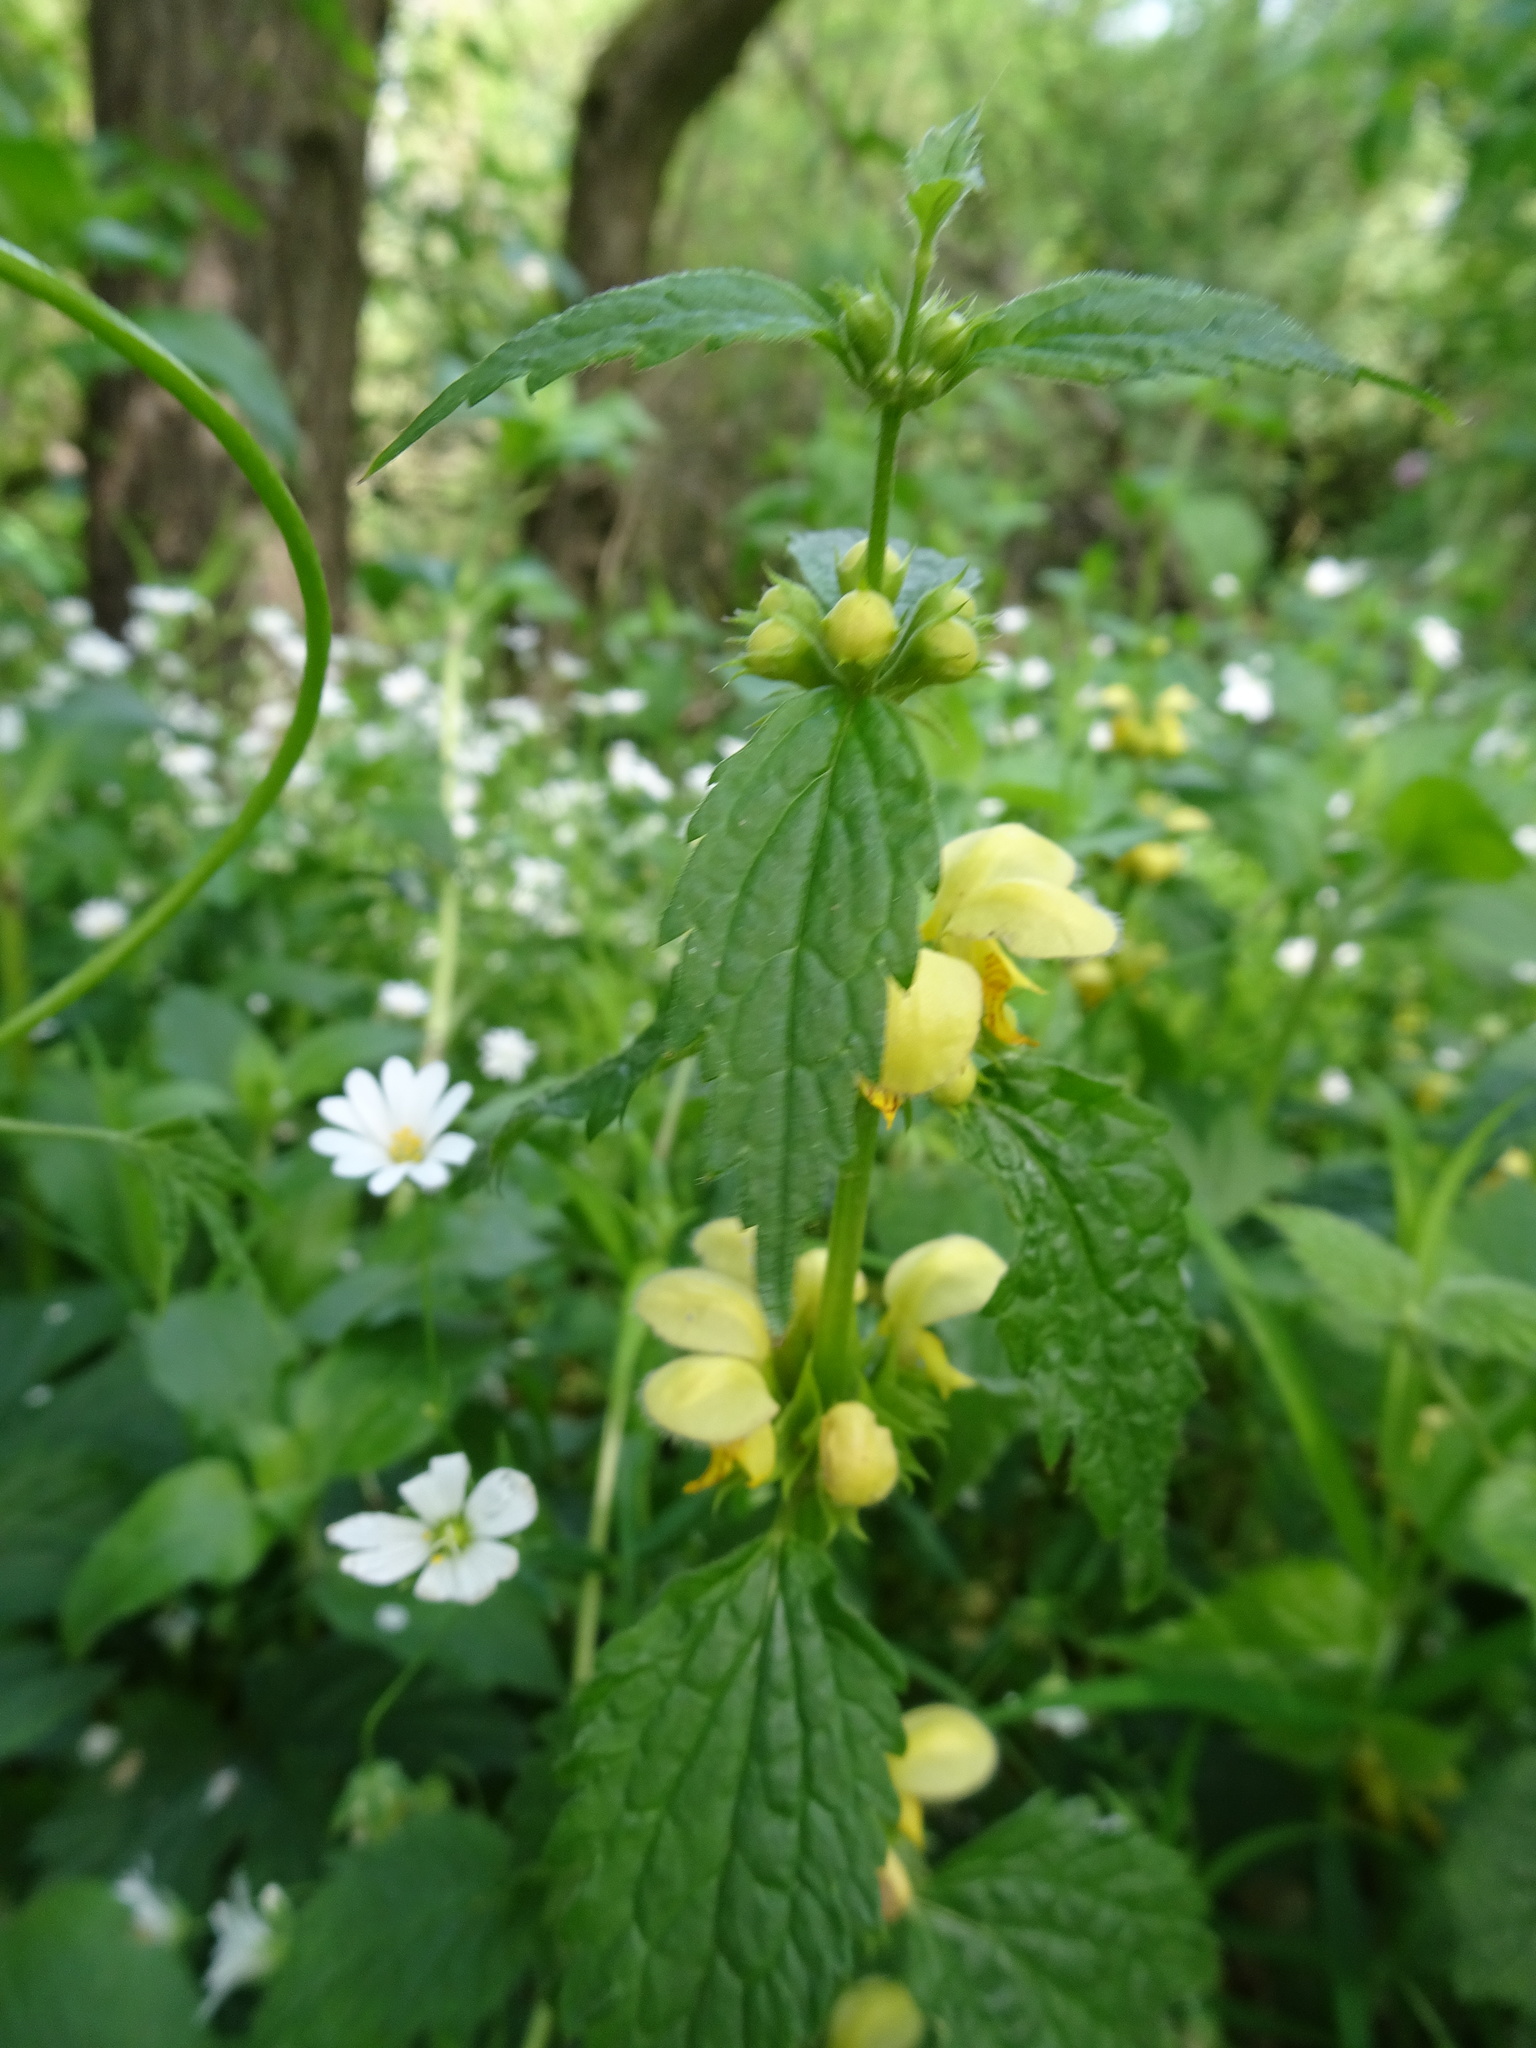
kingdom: Plantae
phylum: Tracheophyta
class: Magnoliopsida
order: Lamiales
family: Lamiaceae
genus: Lamium
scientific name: Lamium galeobdolon
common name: Yellow archangel
